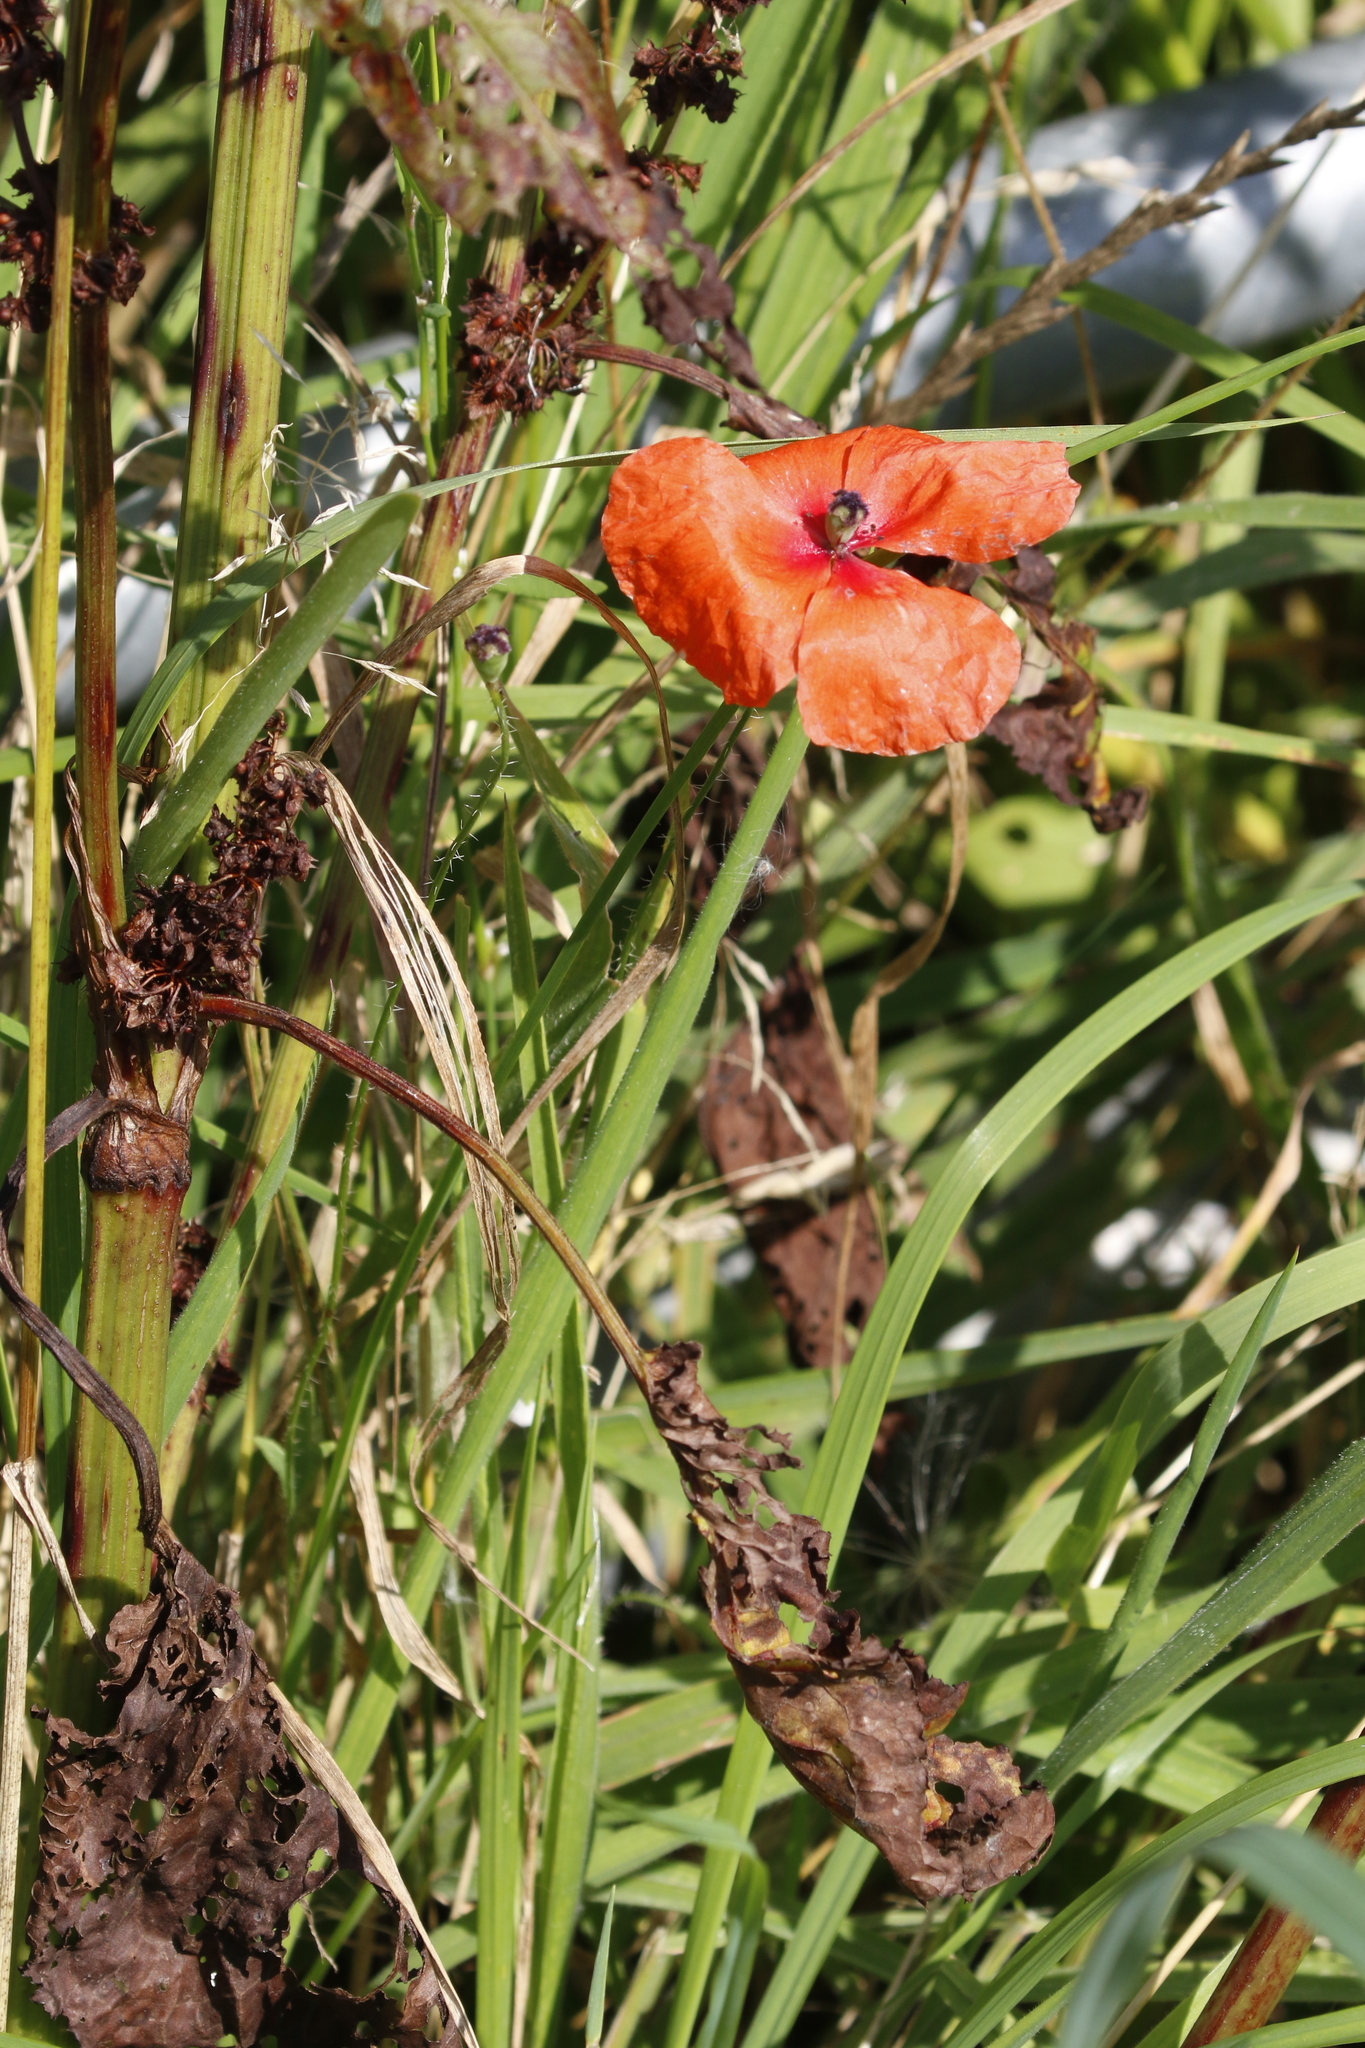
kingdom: Plantae
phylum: Tracheophyta
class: Magnoliopsida
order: Ranunculales
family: Papaveraceae
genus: Papaver
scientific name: Papaver rhoeas
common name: Corn poppy
